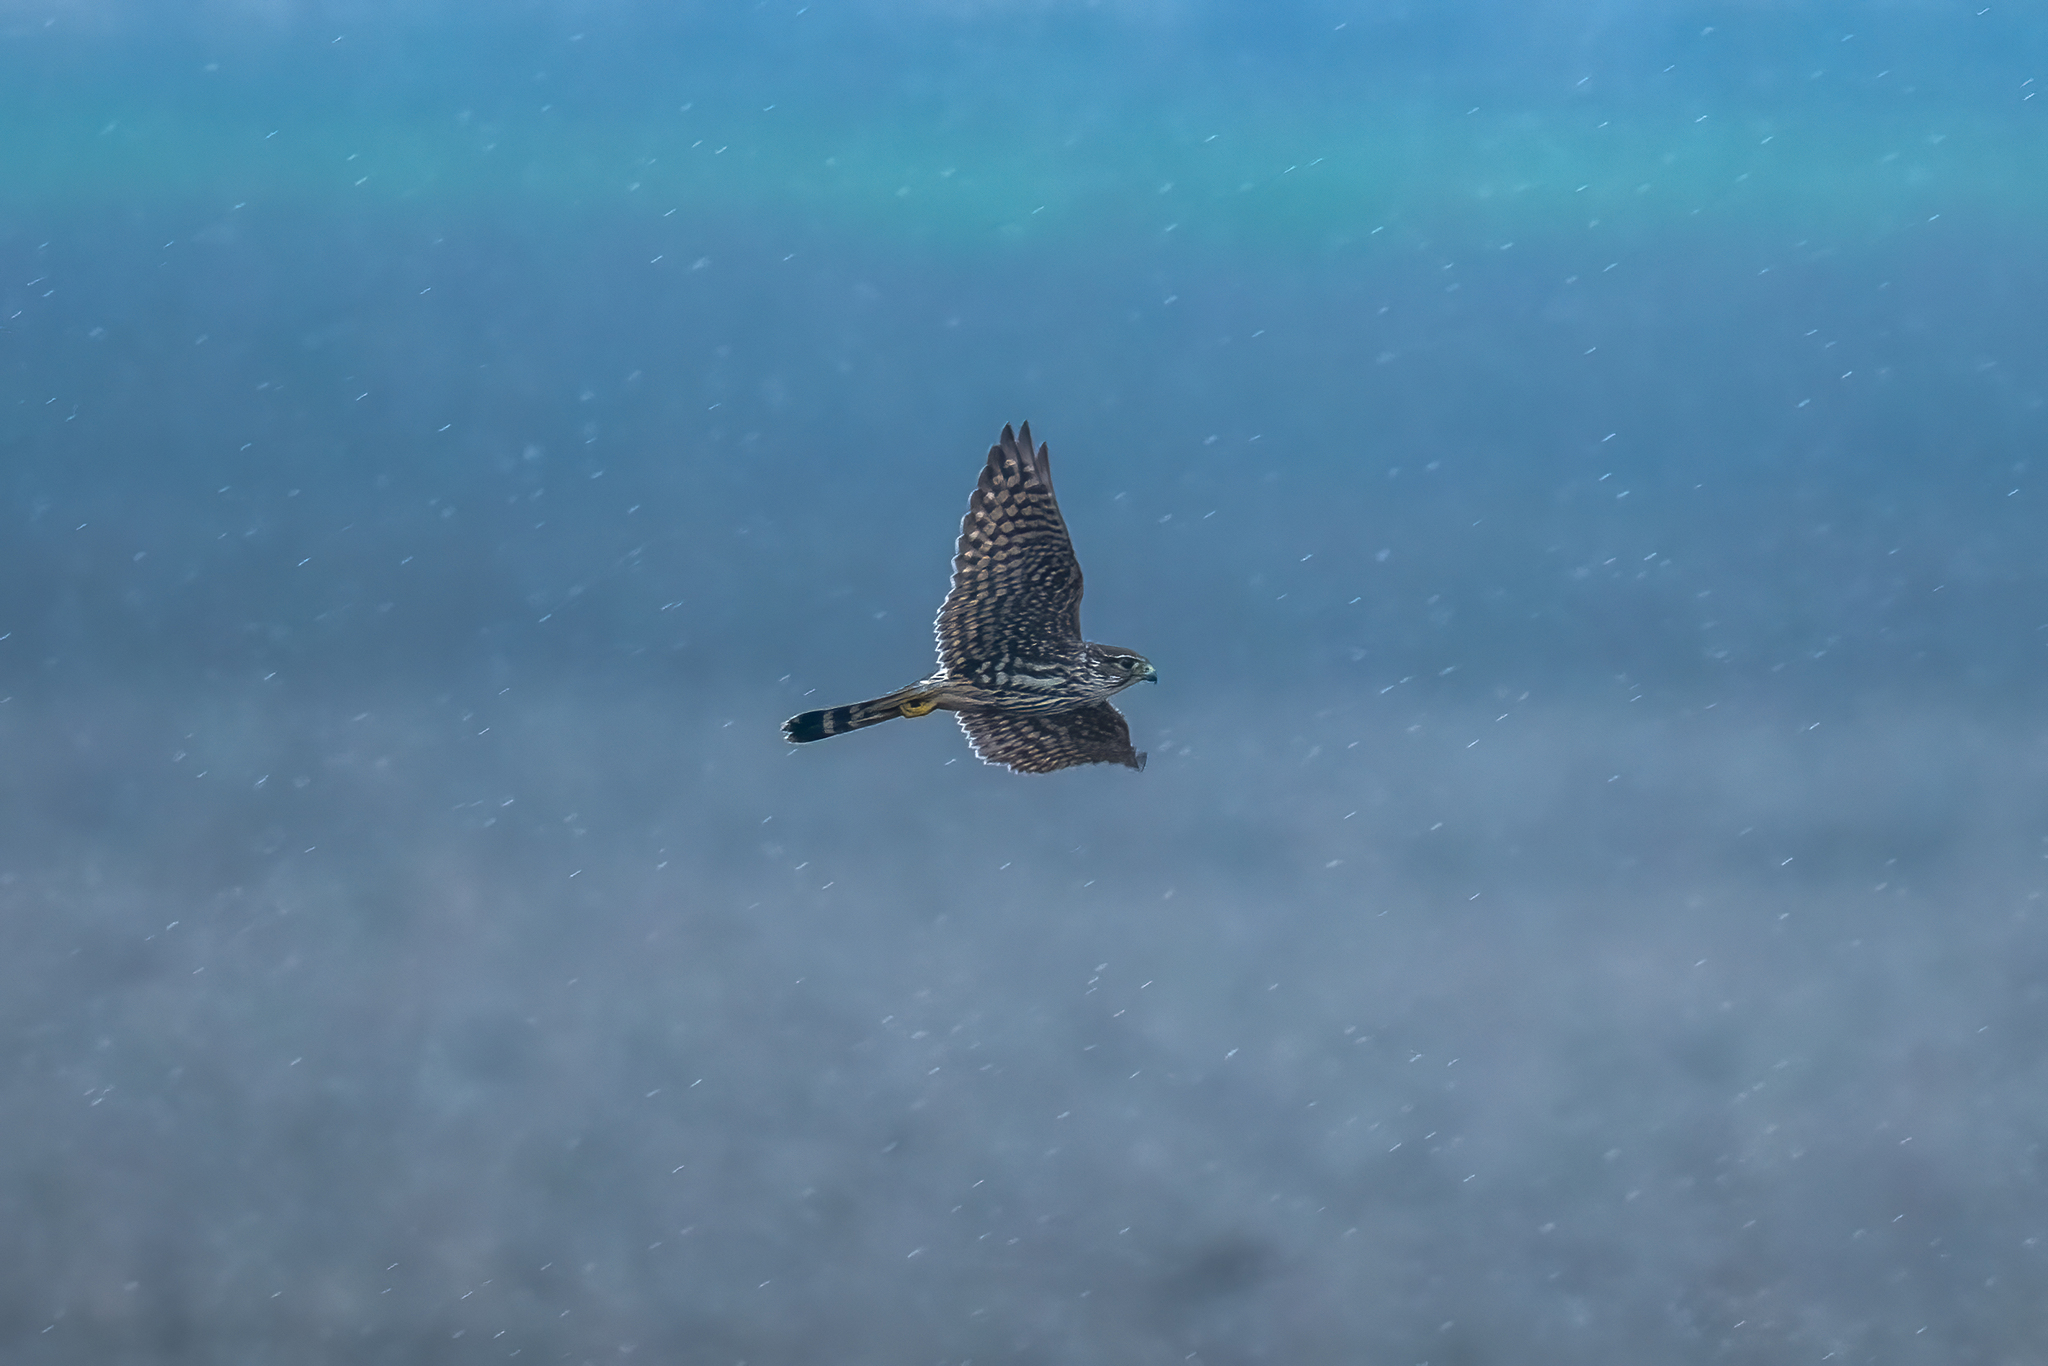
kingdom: Animalia
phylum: Chordata
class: Aves
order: Falconiformes
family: Falconidae
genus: Falco
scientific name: Falco columbarius
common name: Merlin
